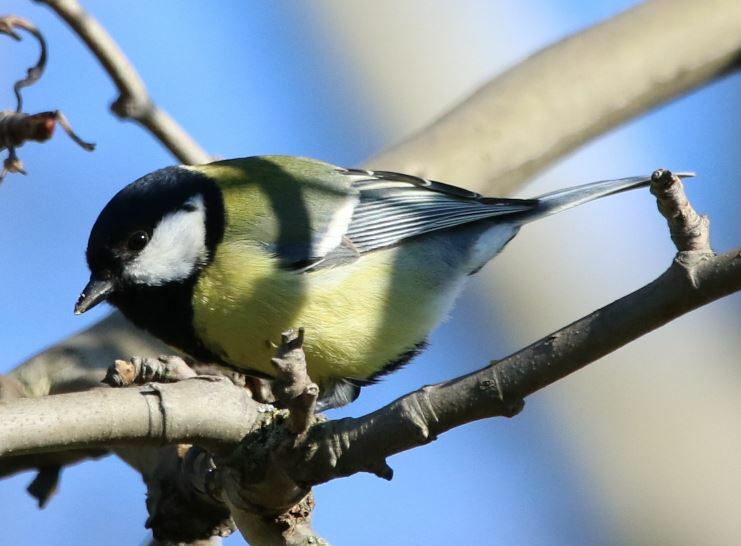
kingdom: Animalia
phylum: Chordata
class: Aves
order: Passeriformes
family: Paridae
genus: Parus
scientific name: Parus major
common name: Great tit
